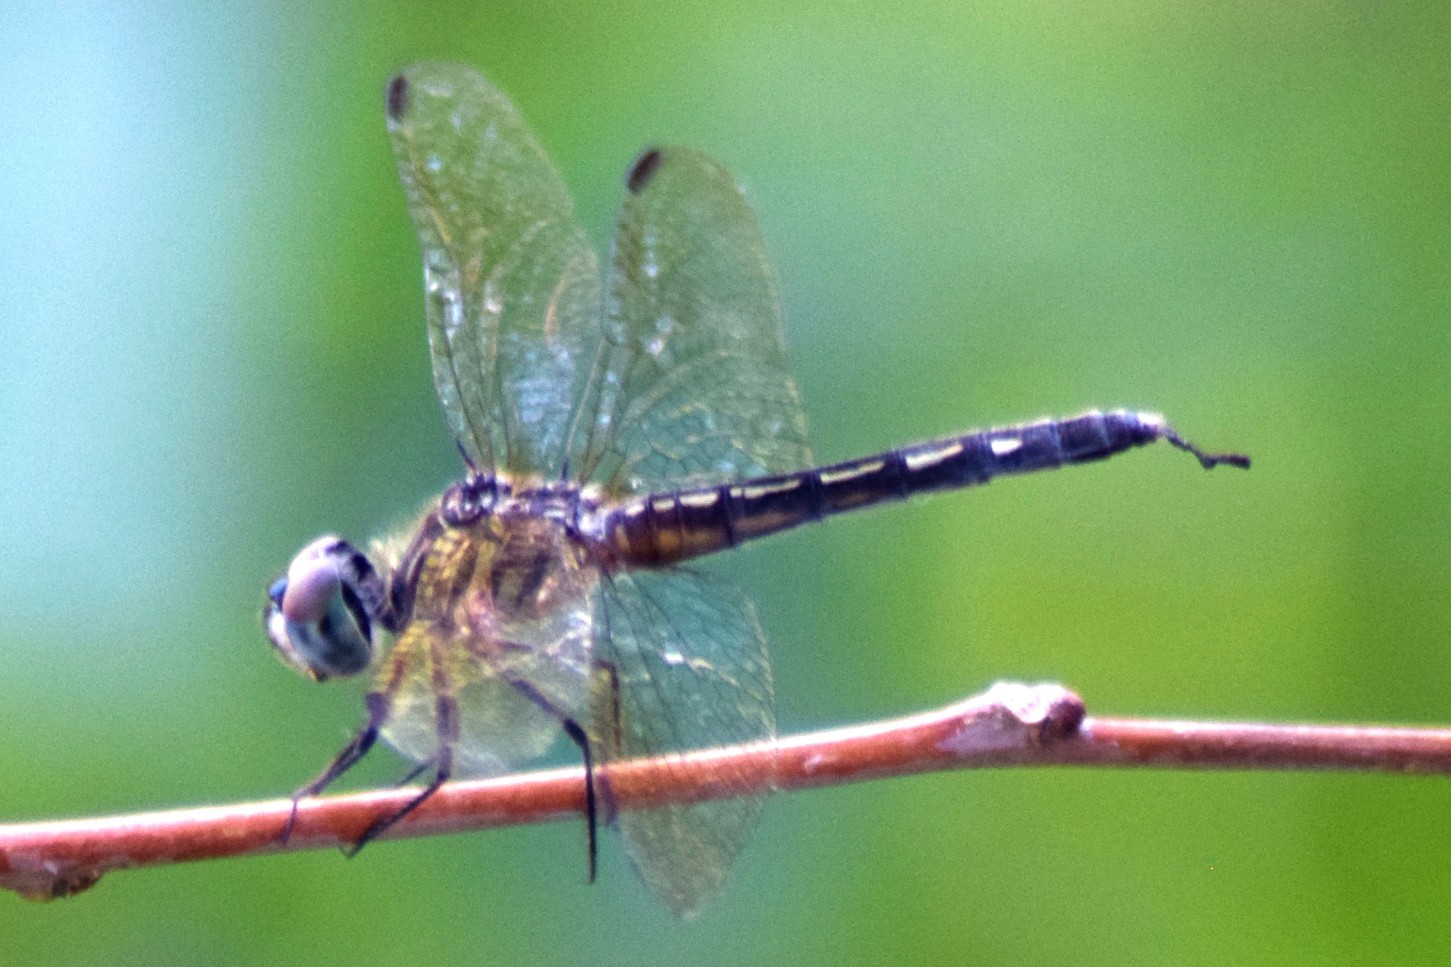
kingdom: Animalia
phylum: Arthropoda
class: Insecta
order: Odonata
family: Libellulidae
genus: Pachydiplax
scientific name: Pachydiplax longipennis
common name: Blue dasher
